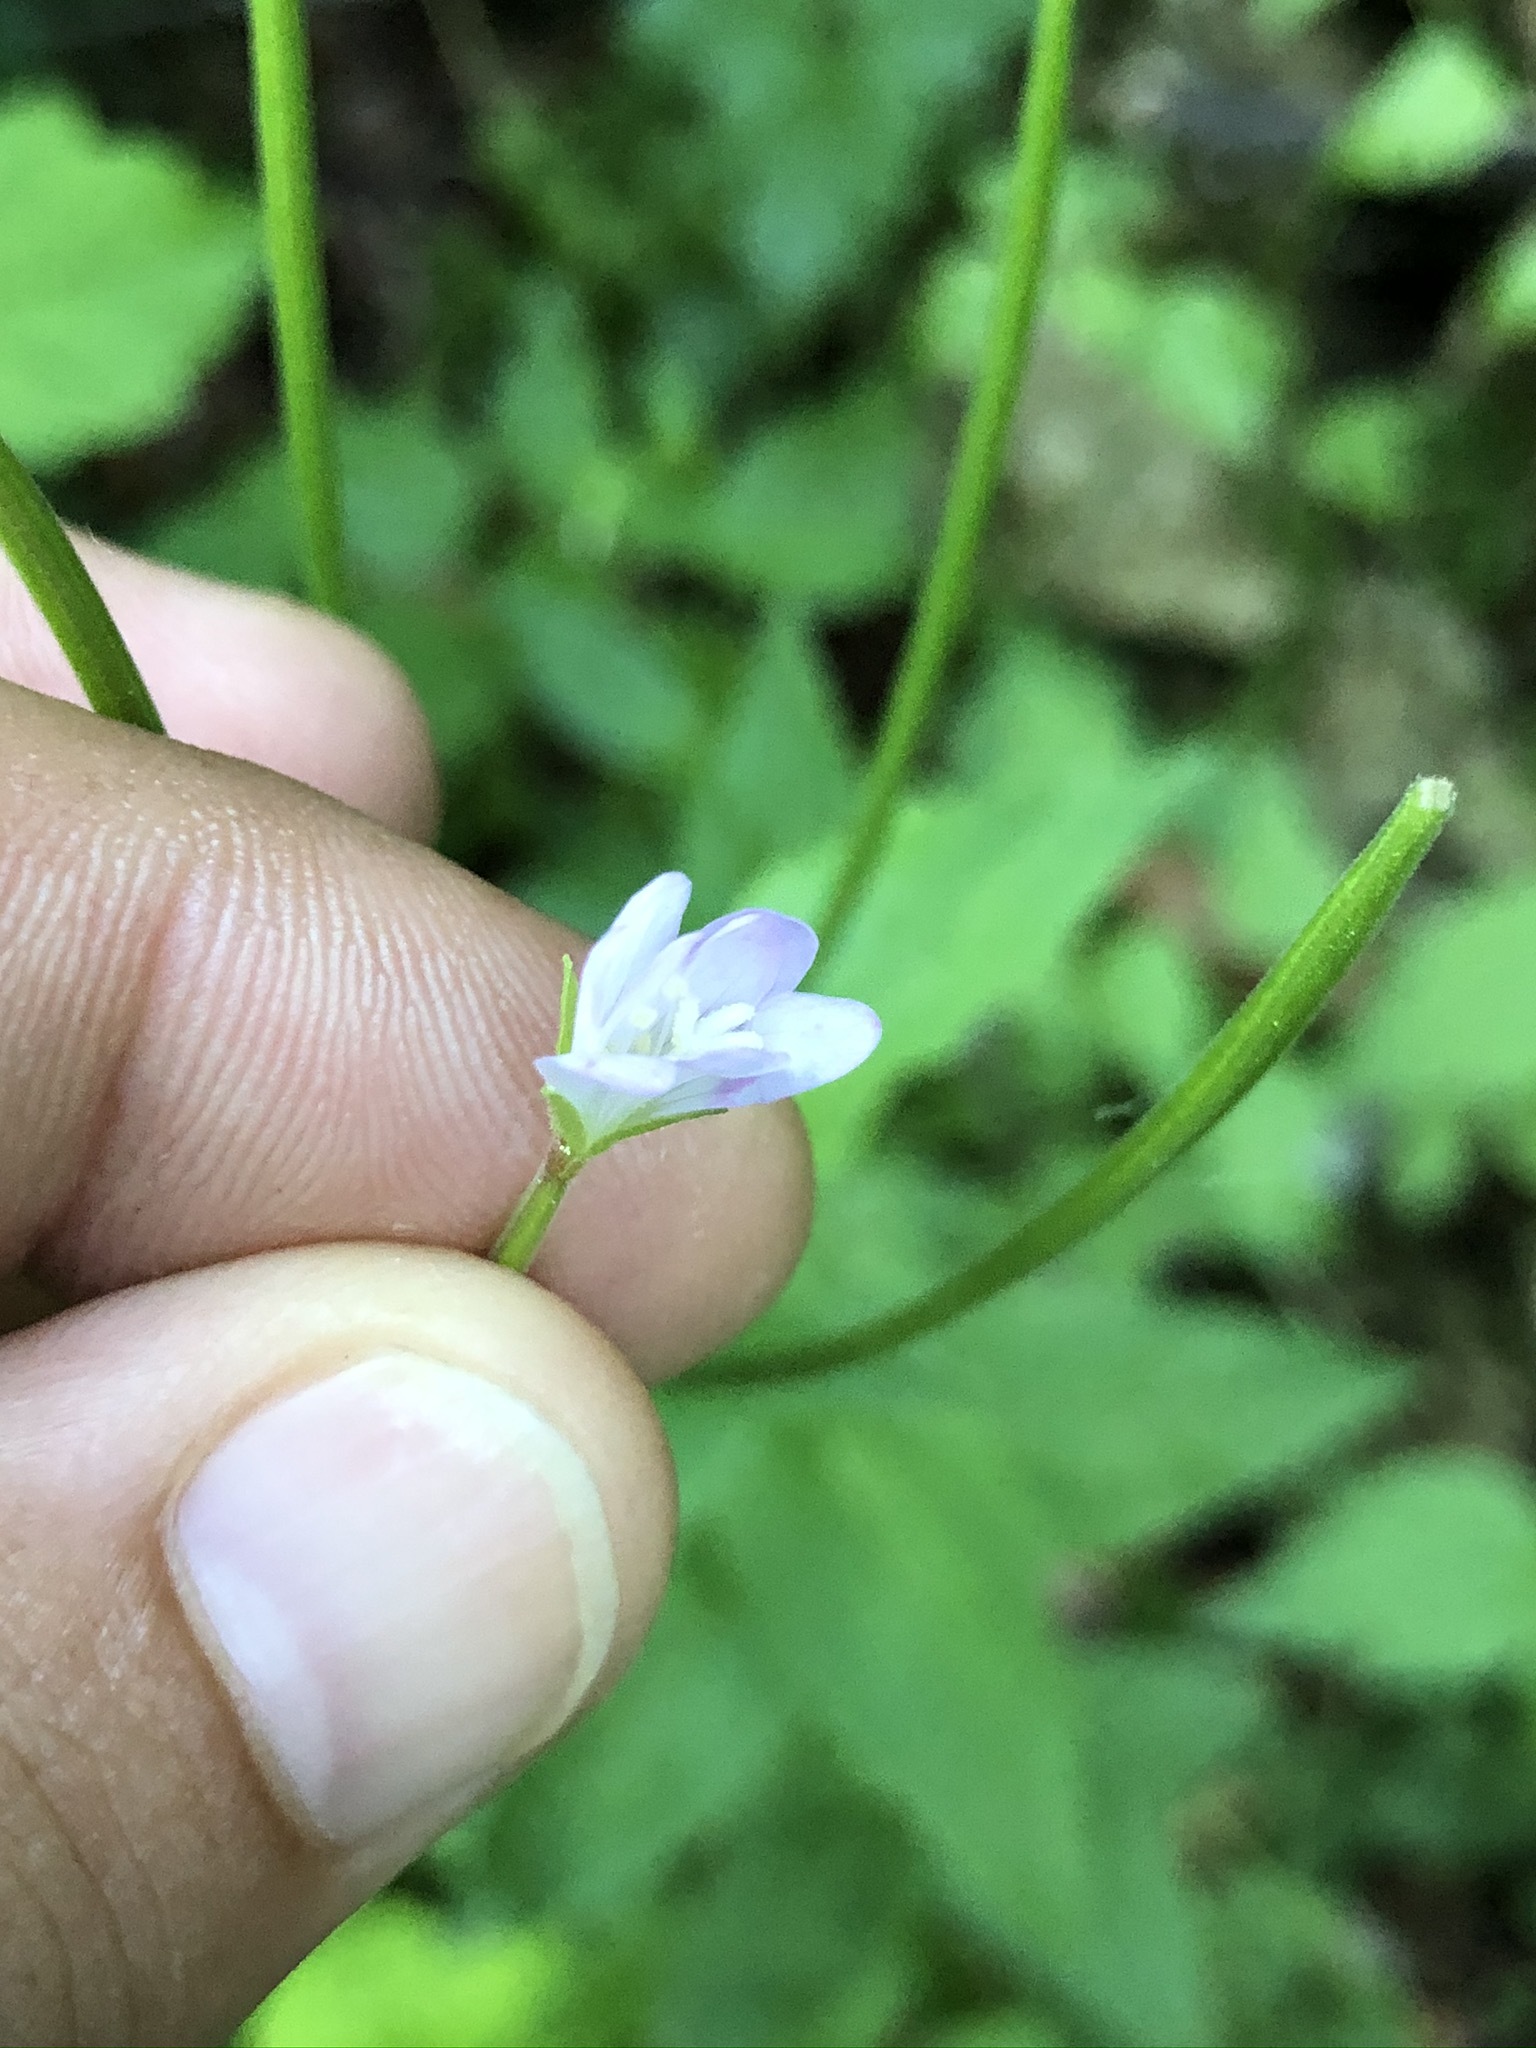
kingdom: Plantae
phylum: Tracheophyta
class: Magnoliopsida
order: Myrtales
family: Onagraceae
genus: Epilobium
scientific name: Epilobium montanum
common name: Broad-leaved willowherb
